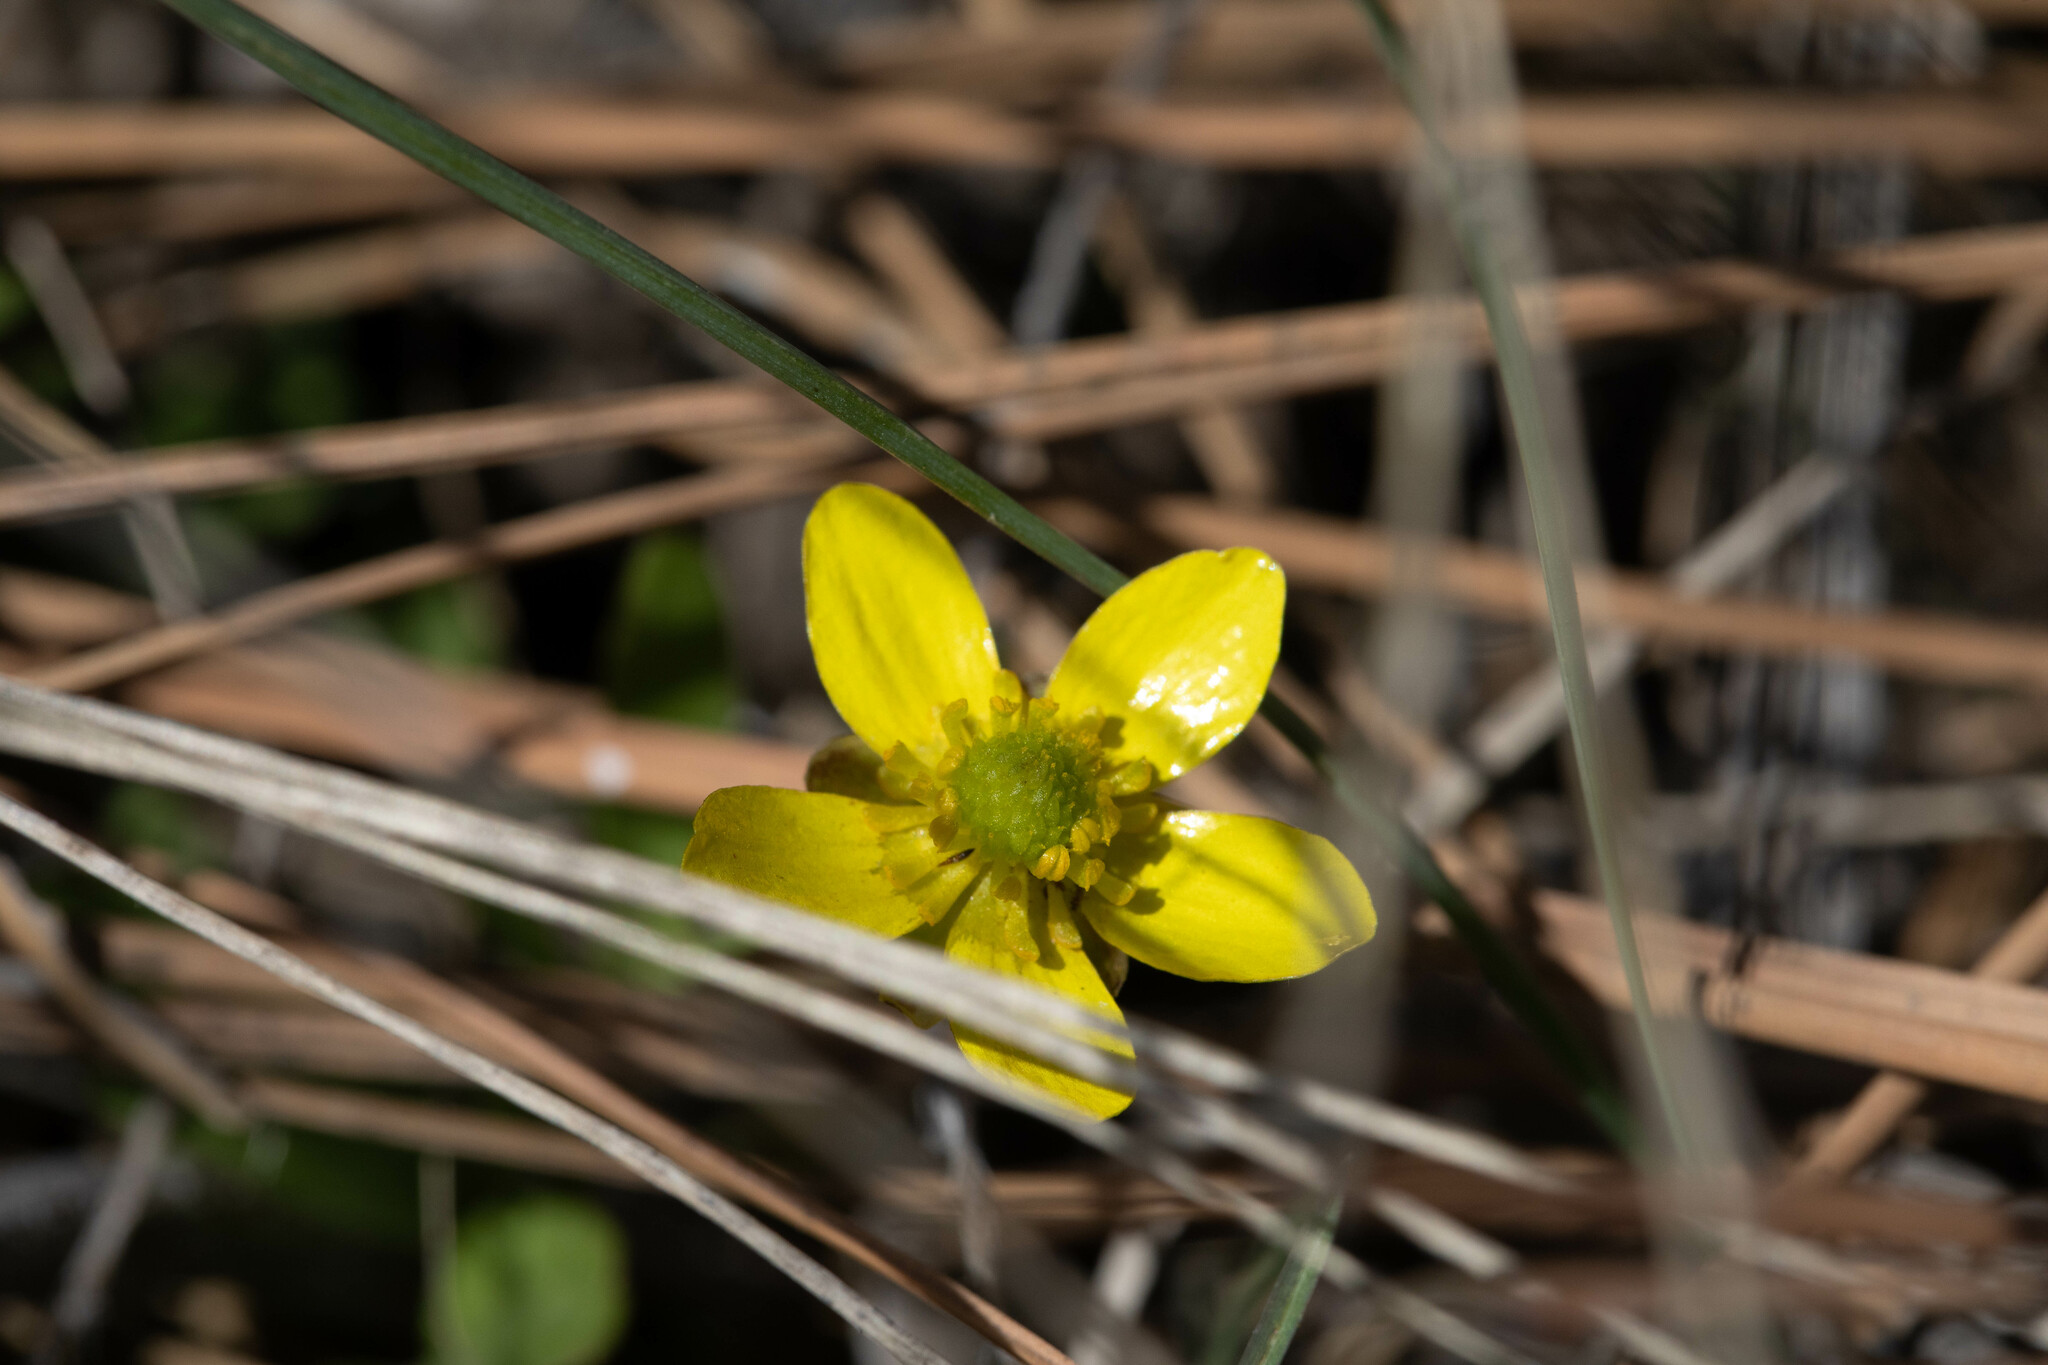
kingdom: Plantae
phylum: Tracheophyta
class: Magnoliopsida
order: Ranunculales
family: Ranunculaceae
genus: Ranunculus
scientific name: Ranunculus glaberrimus
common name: Sagebrush buttercup
